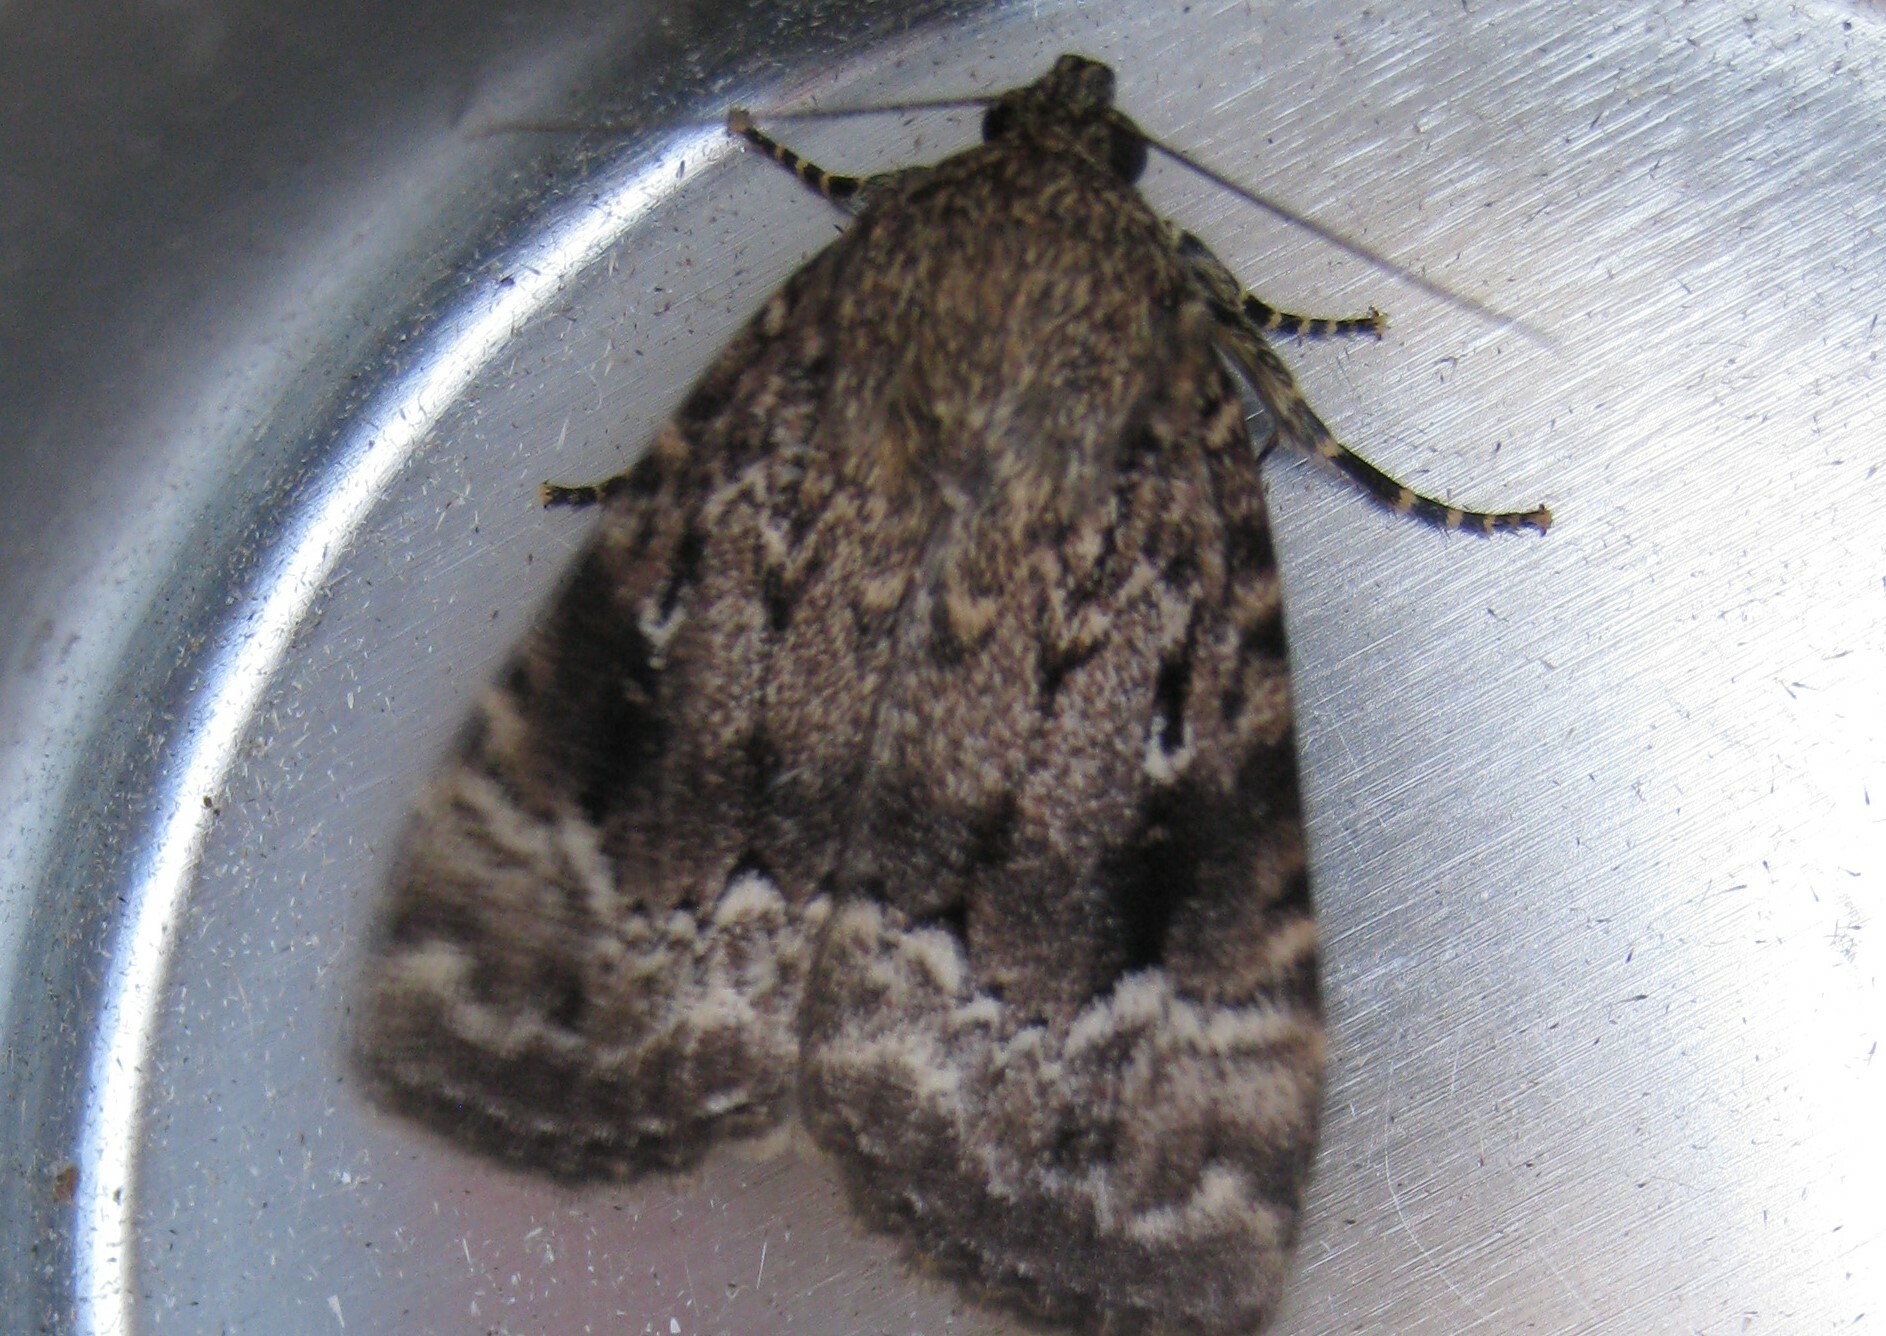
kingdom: Animalia
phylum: Arthropoda
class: Insecta
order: Lepidoptera
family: Noctuidae
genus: Amphipyra
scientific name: Amphipyra pyramidea
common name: Copper underwing
